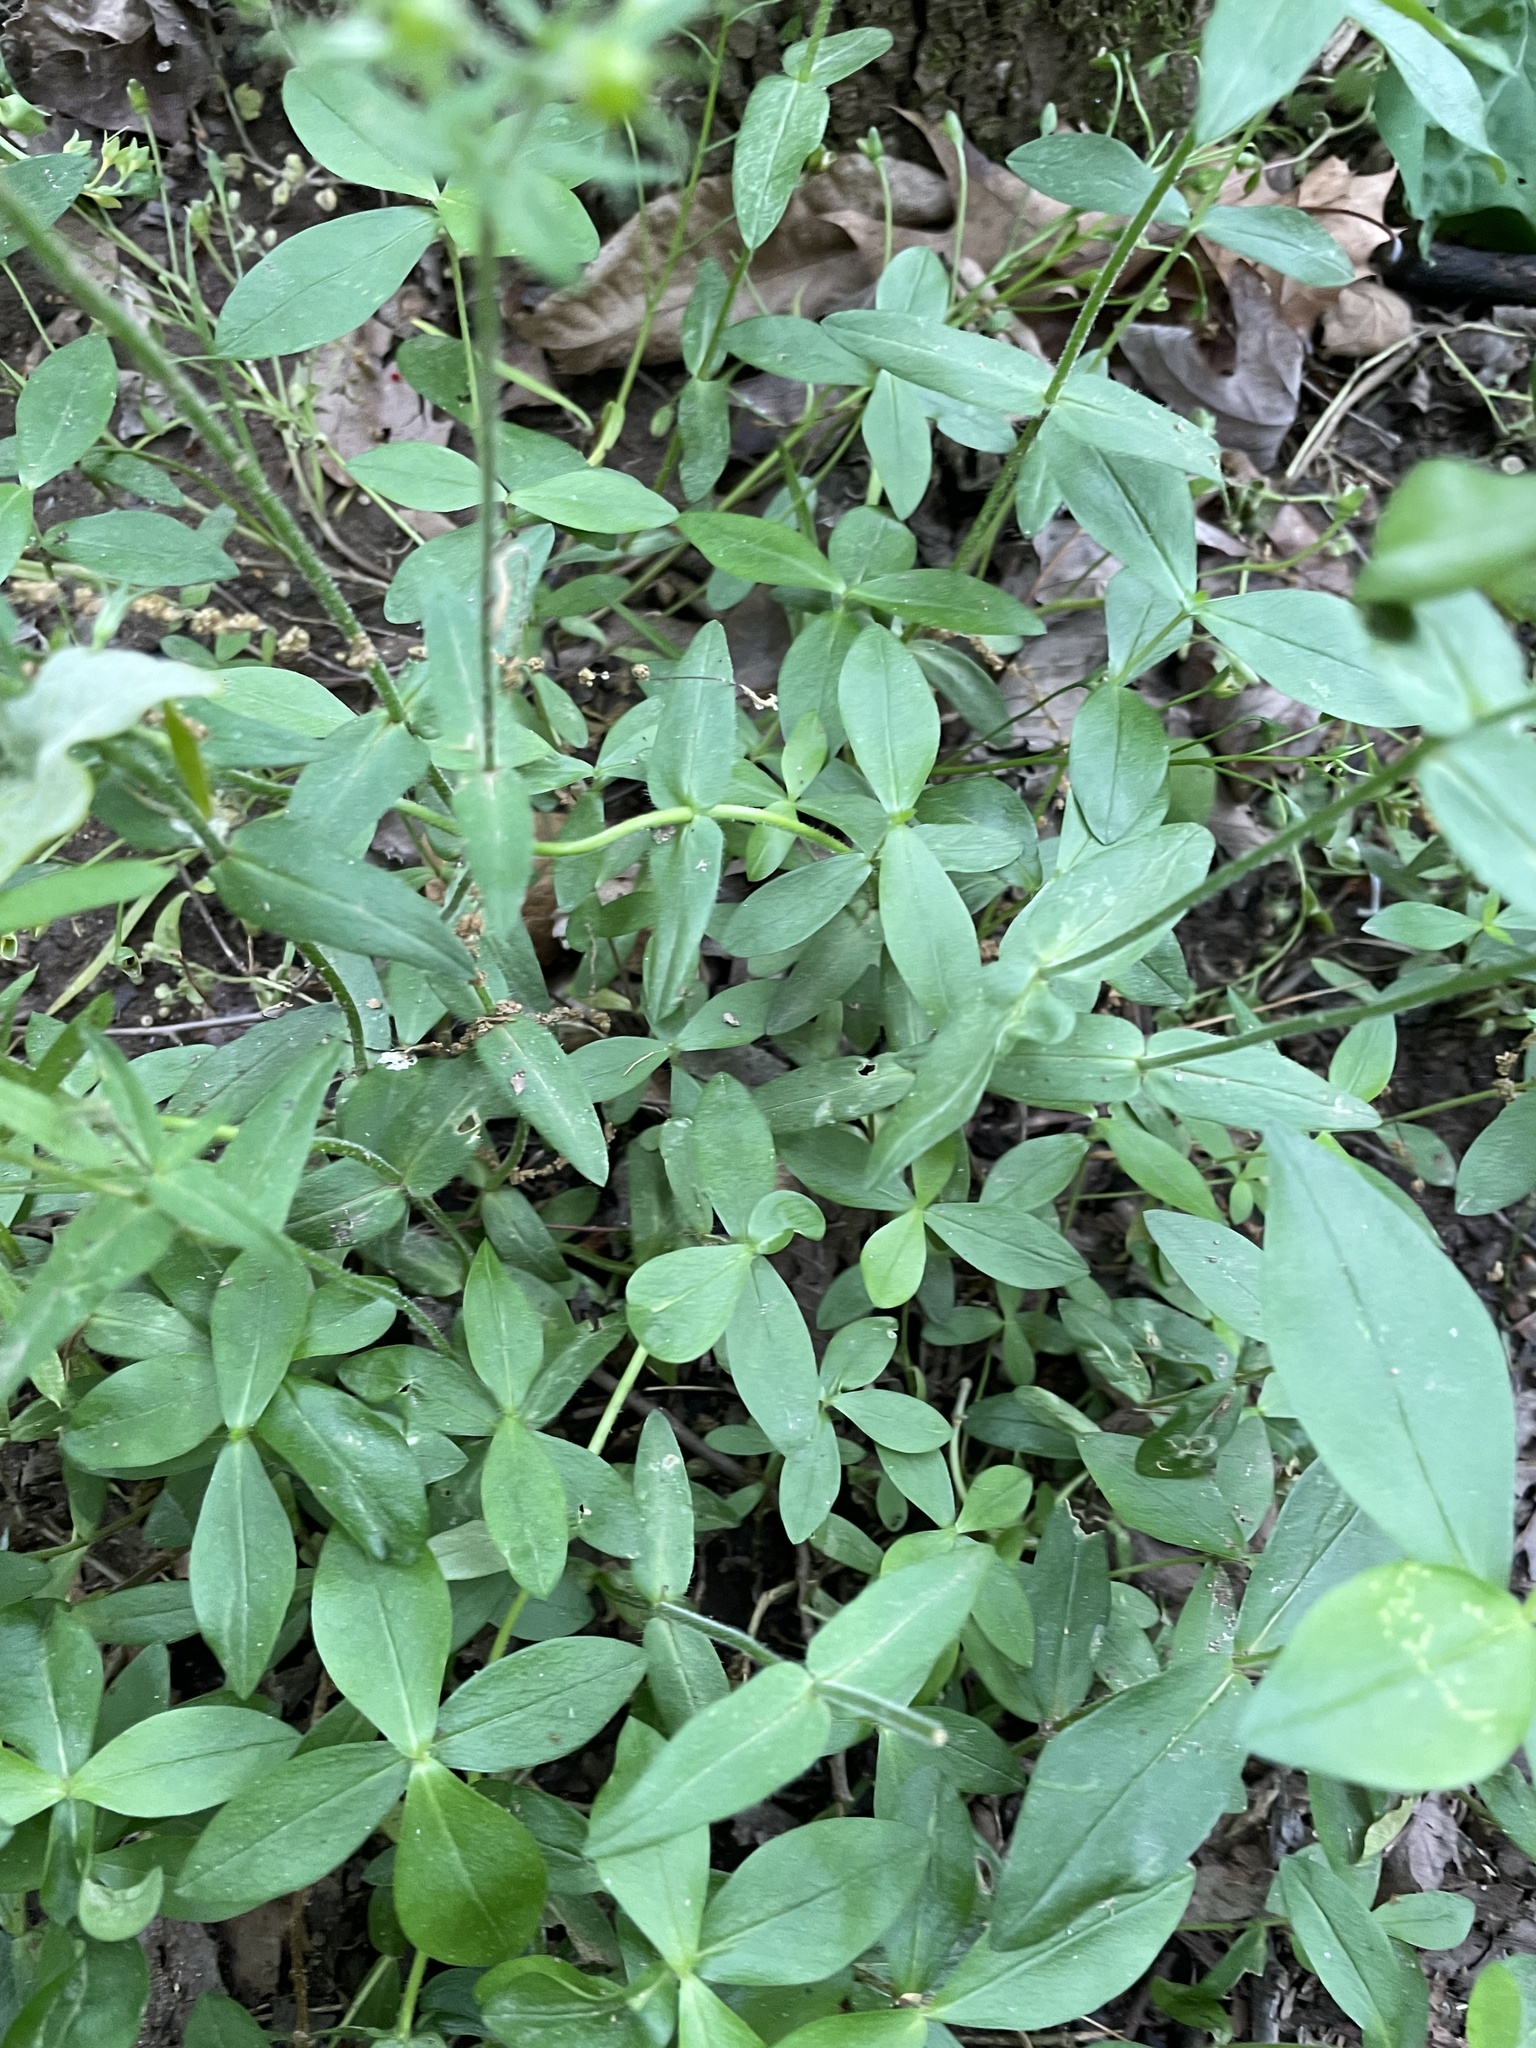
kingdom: Plantae
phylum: Tracheophyta
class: Magnoliopsida
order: Ericales
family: Polemoniaceae
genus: Phlox
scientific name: Phlox divaricata
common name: Blue phlox
